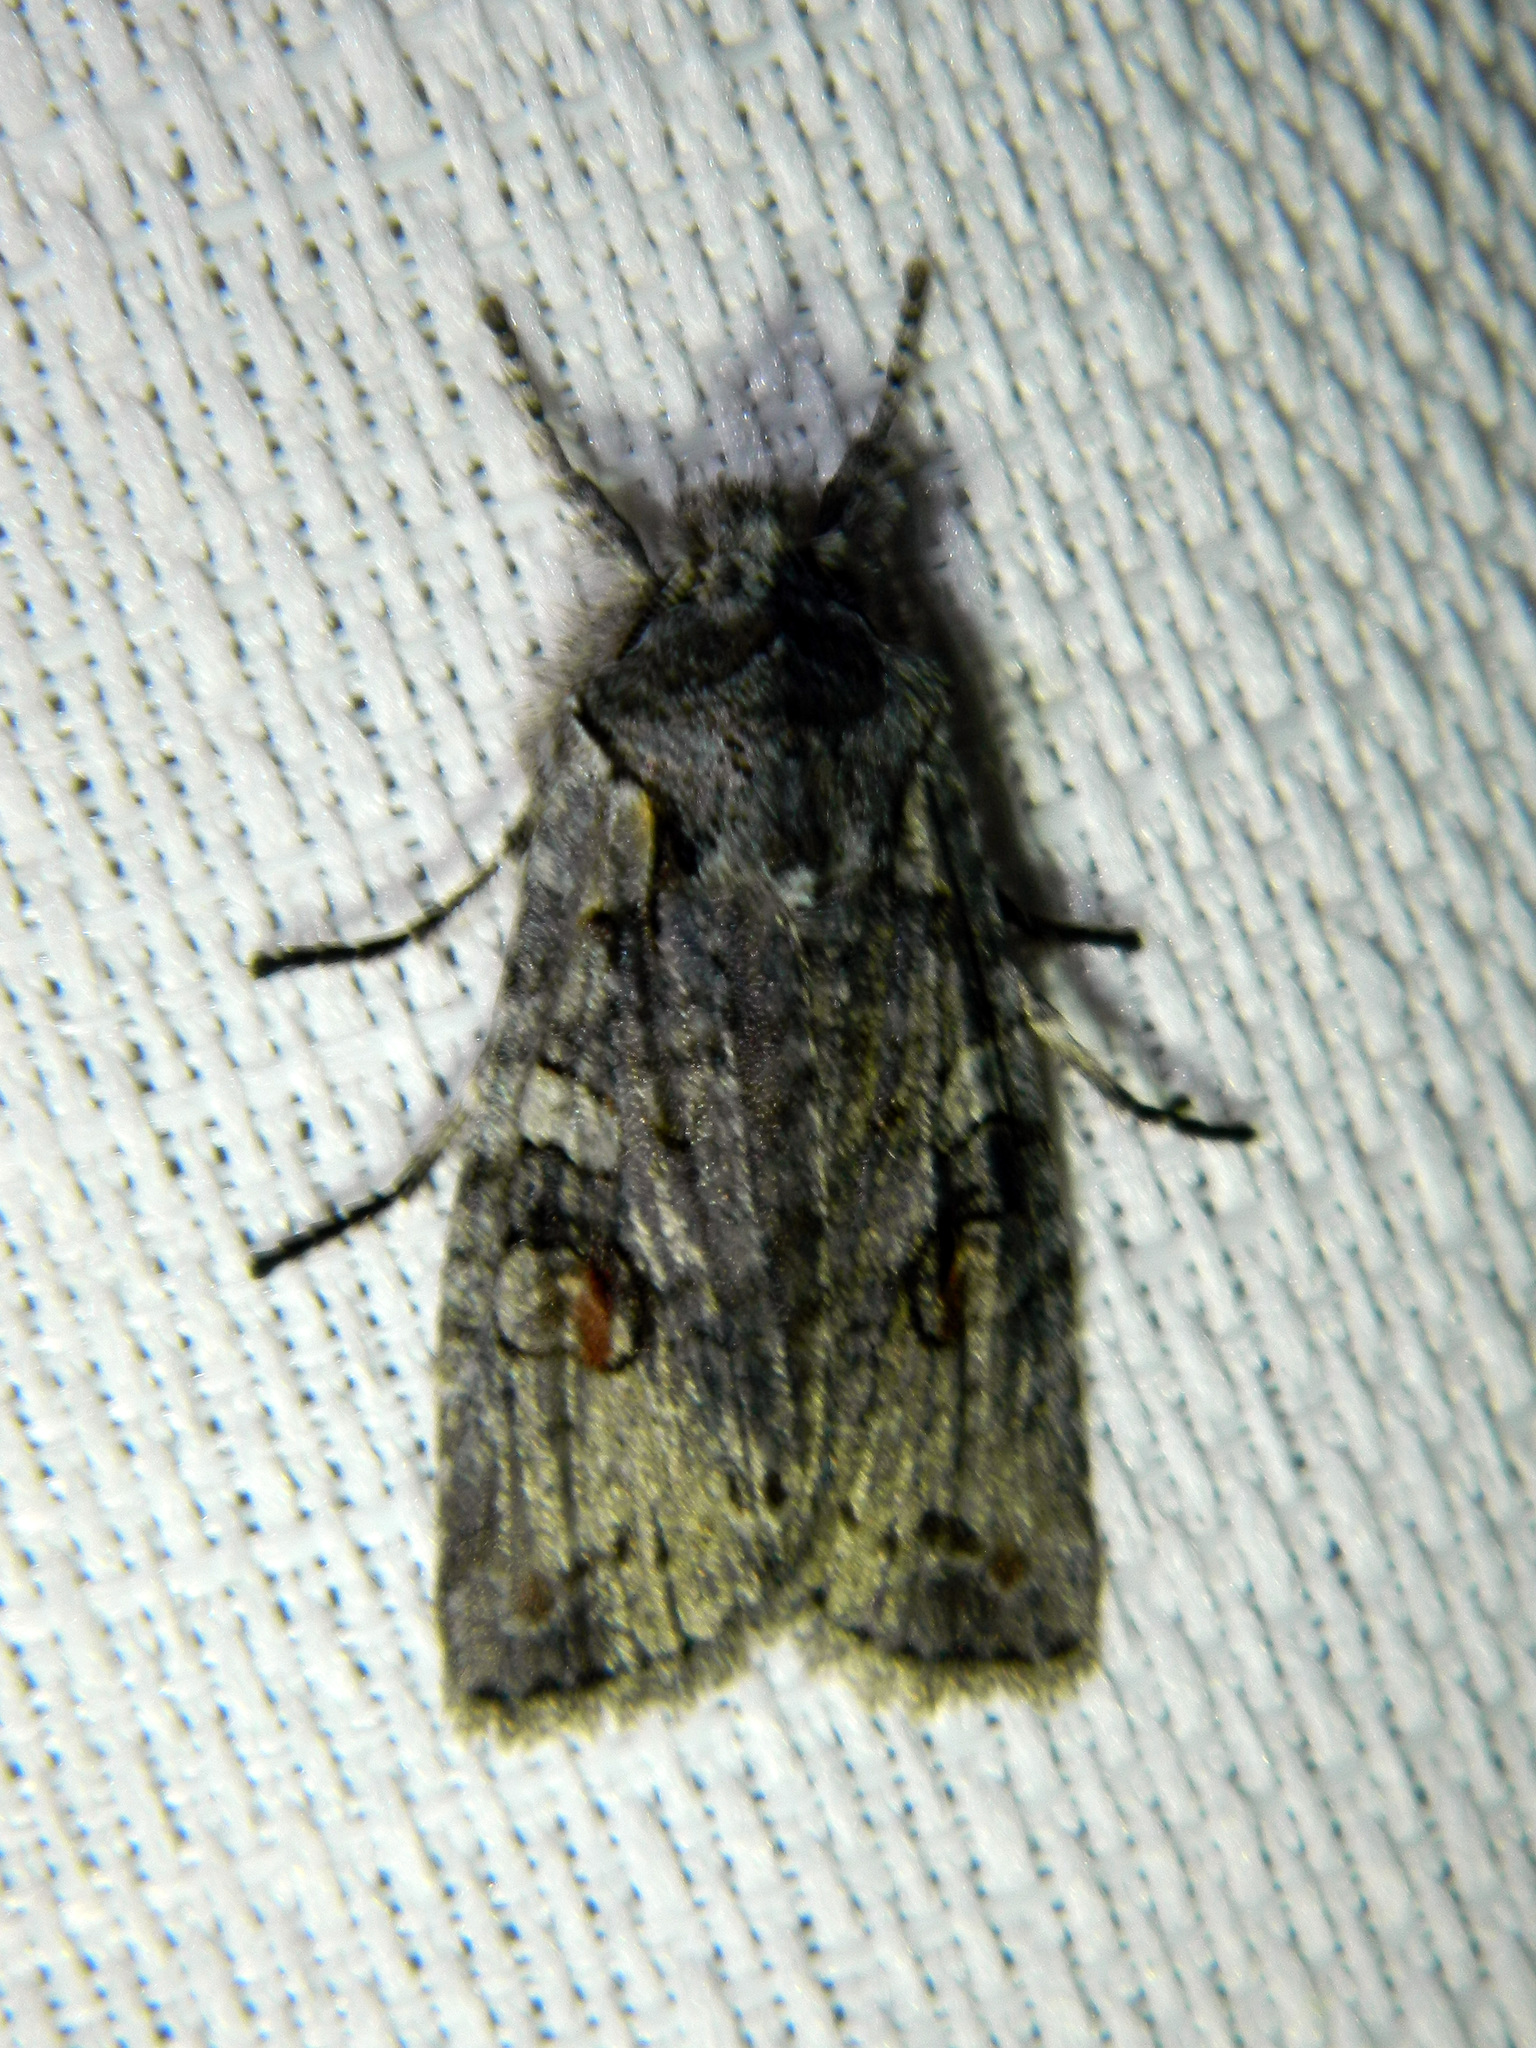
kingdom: Animalia
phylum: Arthropoda
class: Insecta
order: Lepidoptera
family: Noctuidae
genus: Lithophane
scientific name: Lithophane baileyi
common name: Bailey's pinion moth
